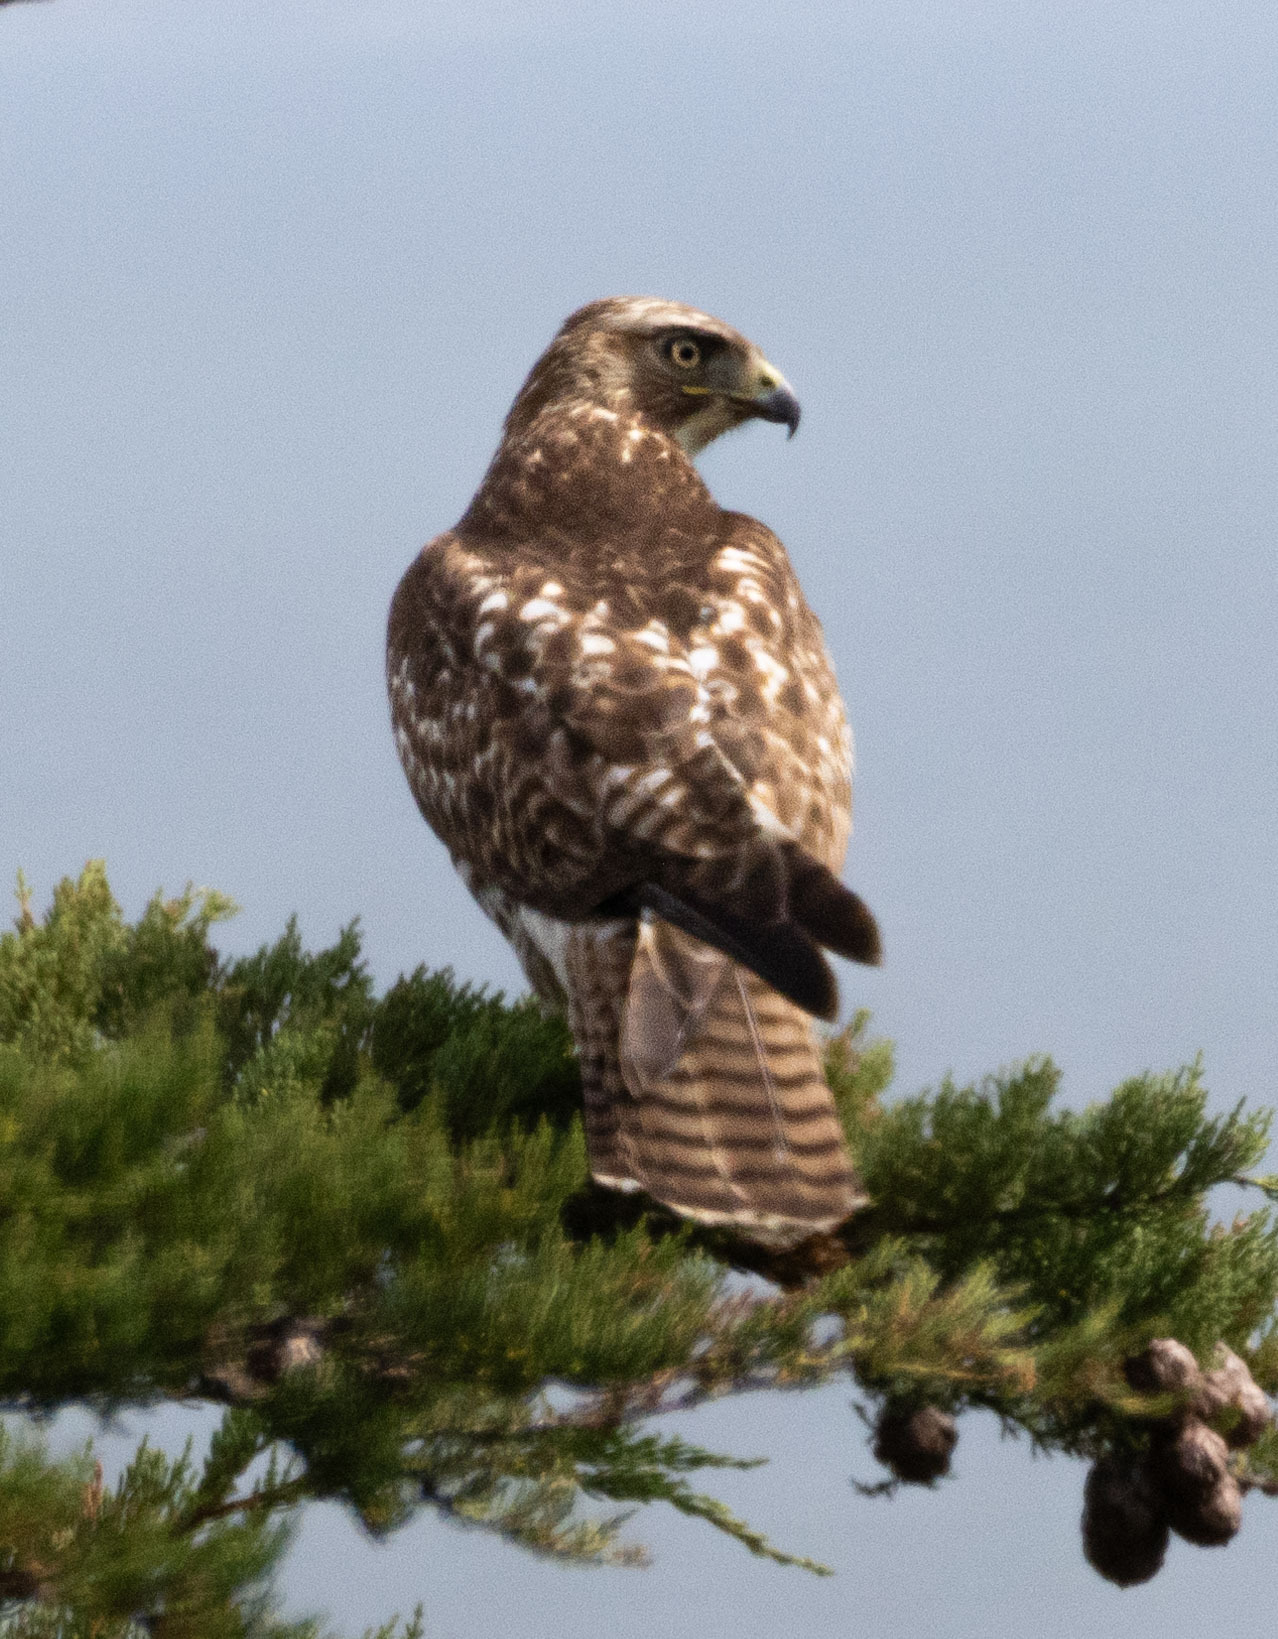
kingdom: Animalia
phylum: Chordata
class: Aves
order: Accipitriformes
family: Accipitridae
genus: Buteo
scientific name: Buteo jamaicensis
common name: Red-tailed hawk
